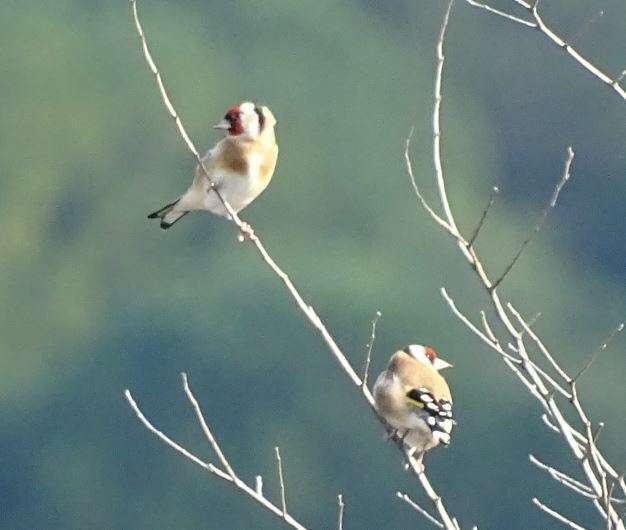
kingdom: Animalia
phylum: Chordata
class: Aves
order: Passeriformes
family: Fringillidae
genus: Carduelis
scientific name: Carduelis carduelis
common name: European goldfinch
